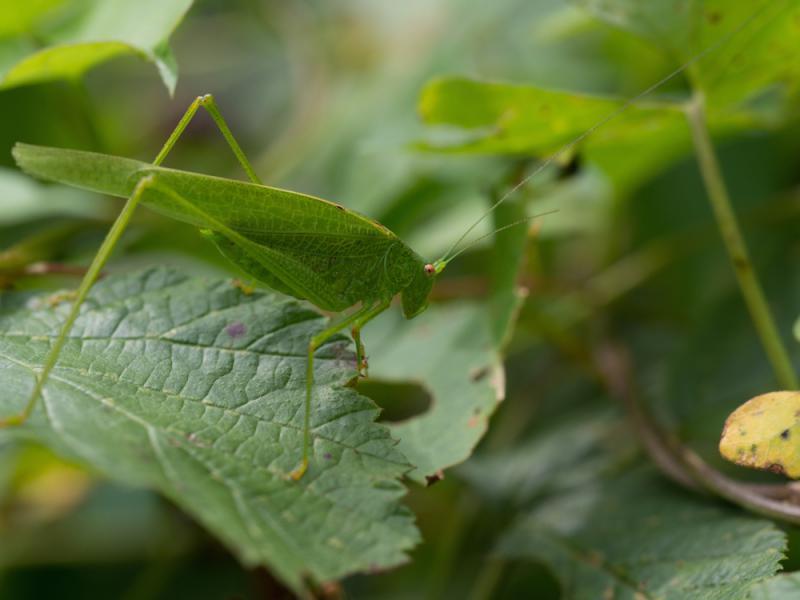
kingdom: Animalia
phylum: Arthropoda
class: Insecta
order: Orthoptera
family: Tettigoniidae
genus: Phaneroptera
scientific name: Phaneroptera nana
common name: Southern sickle bush-cricket
